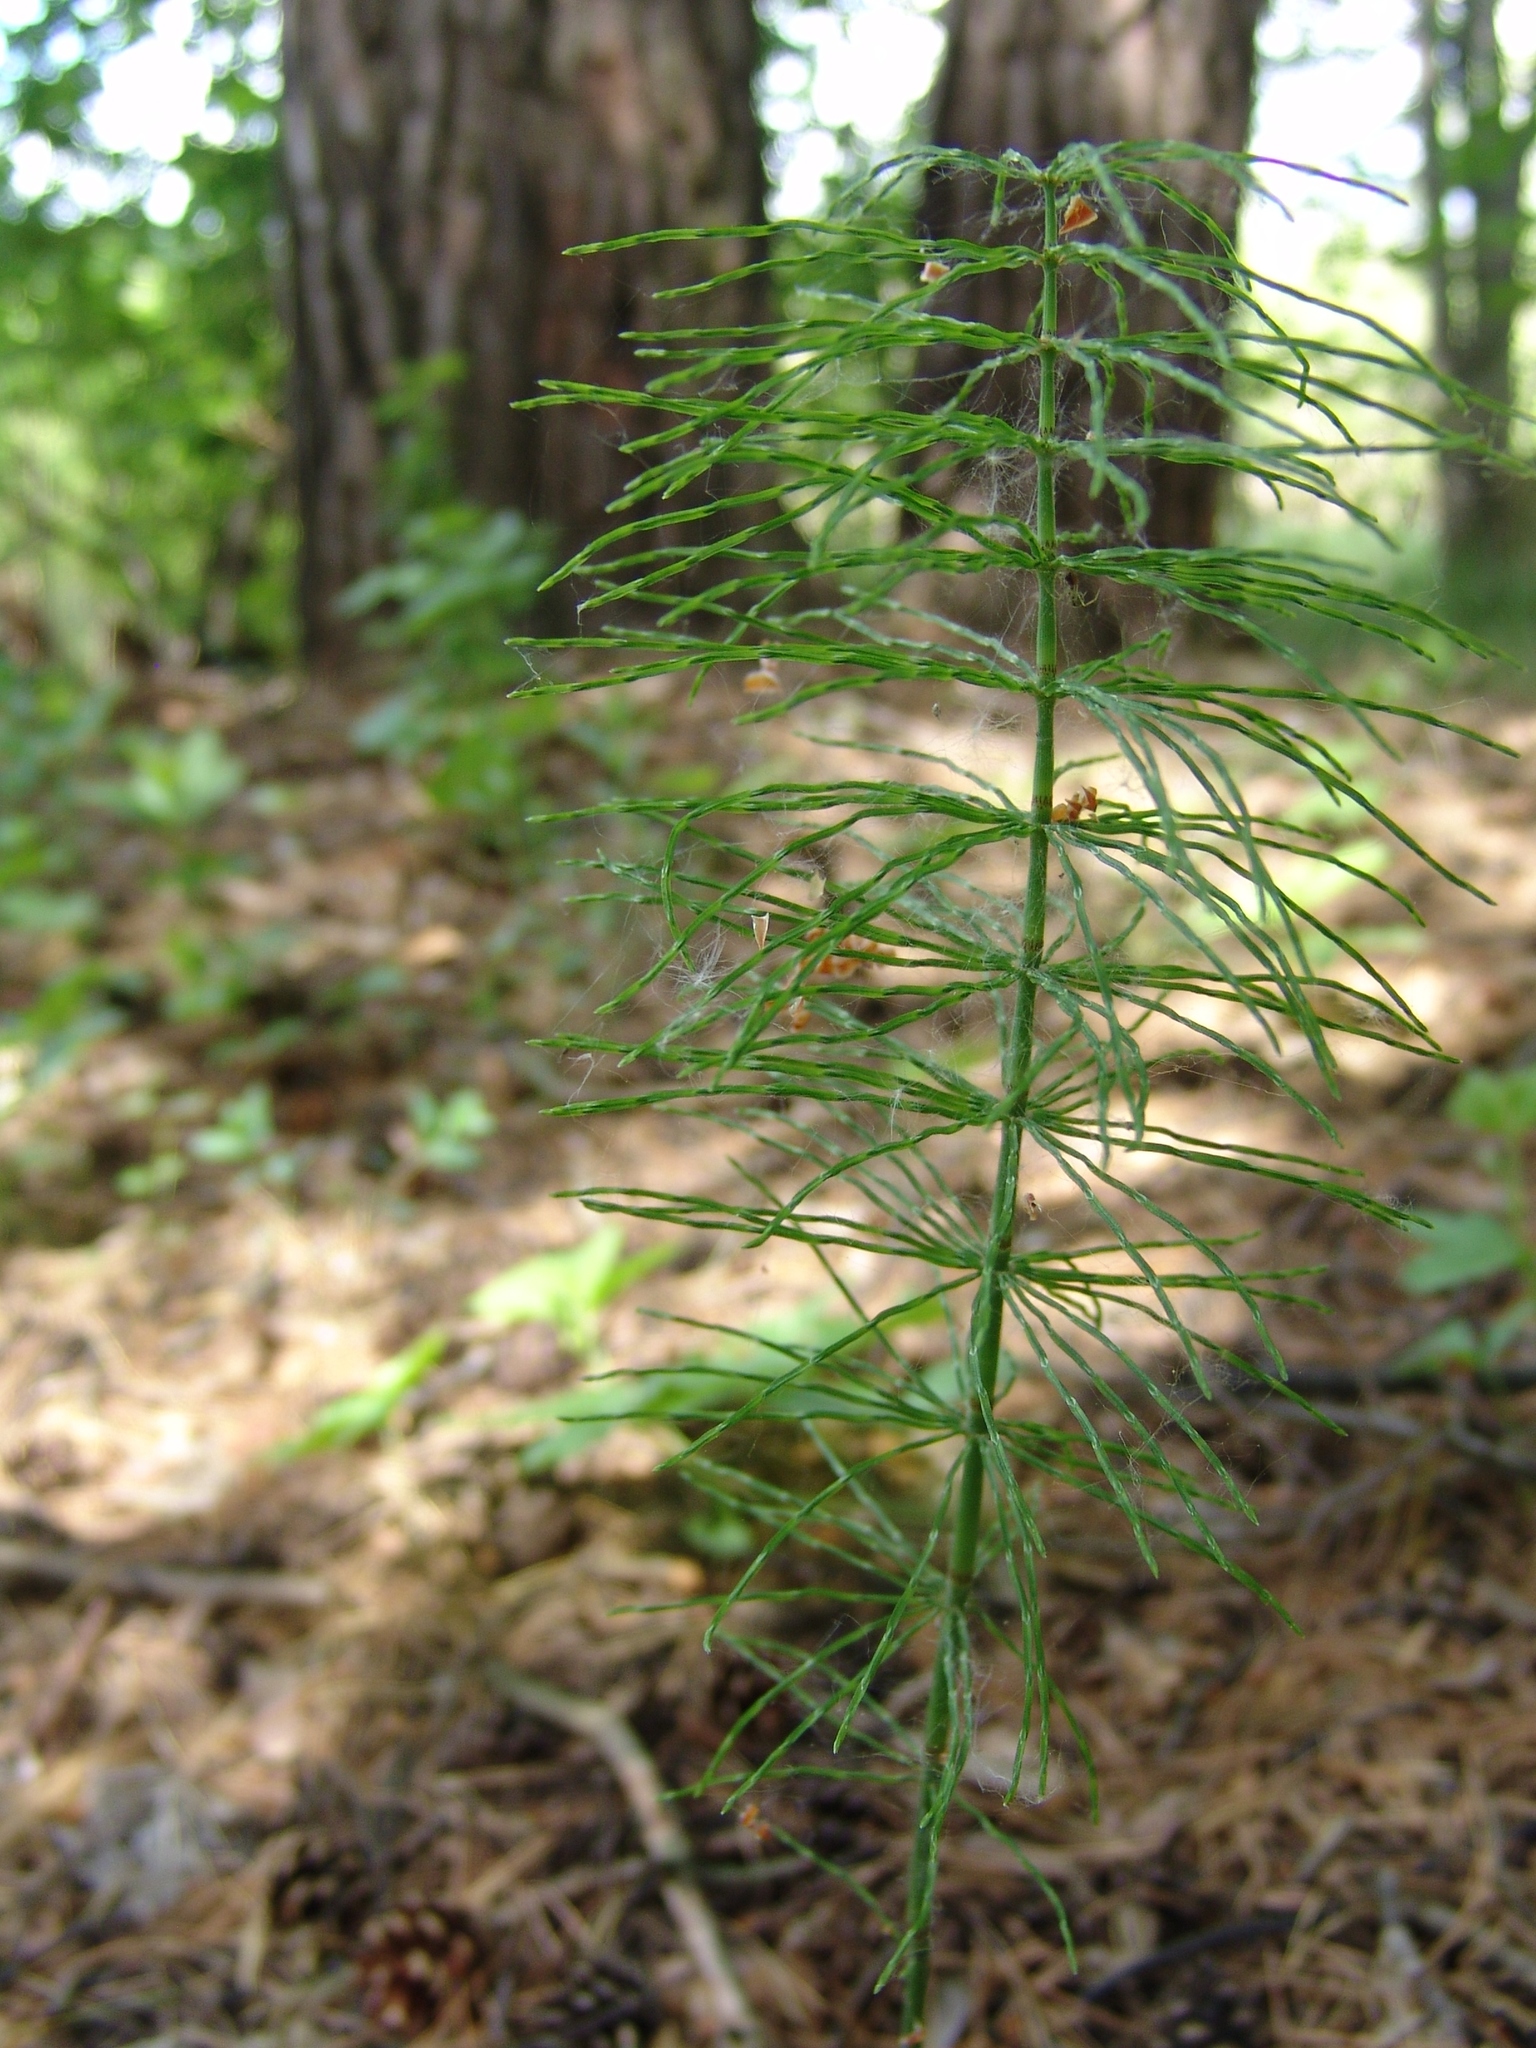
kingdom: Plantae
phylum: Tracheophyta
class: Polypodiopsida
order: Equisetales
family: Equisetaceae
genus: Equisetum
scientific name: Equisetum pratense
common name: Meadow horsetail
